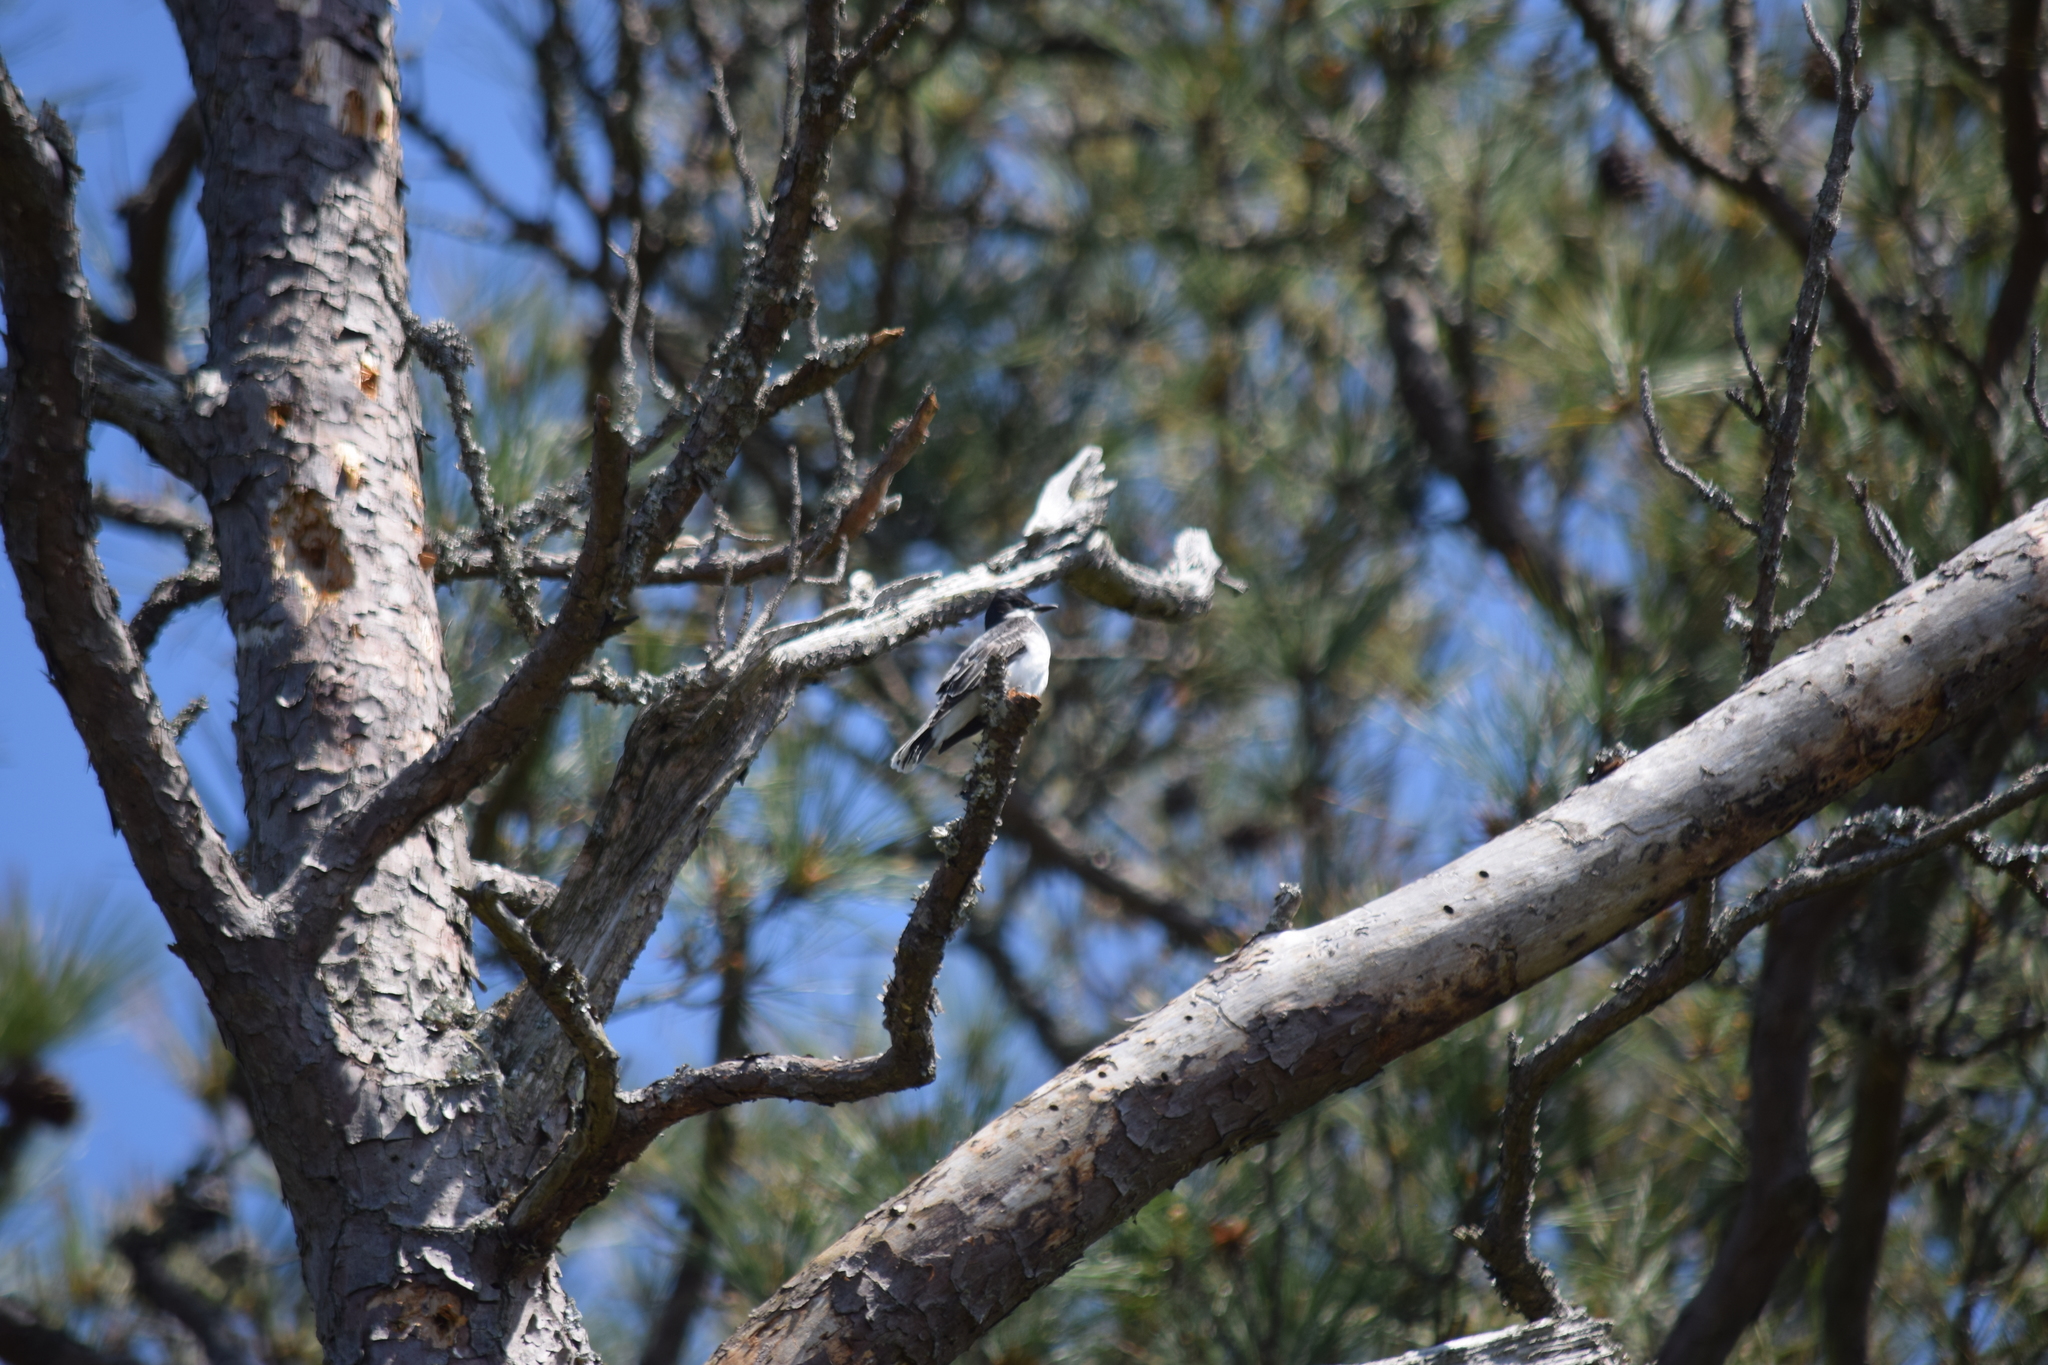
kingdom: Animalia
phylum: Chordata
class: Aves
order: Passeriformes
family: Tyrannidae
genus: Tyrannus
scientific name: Tyrannus tyrannus
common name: Eastern kingbird
